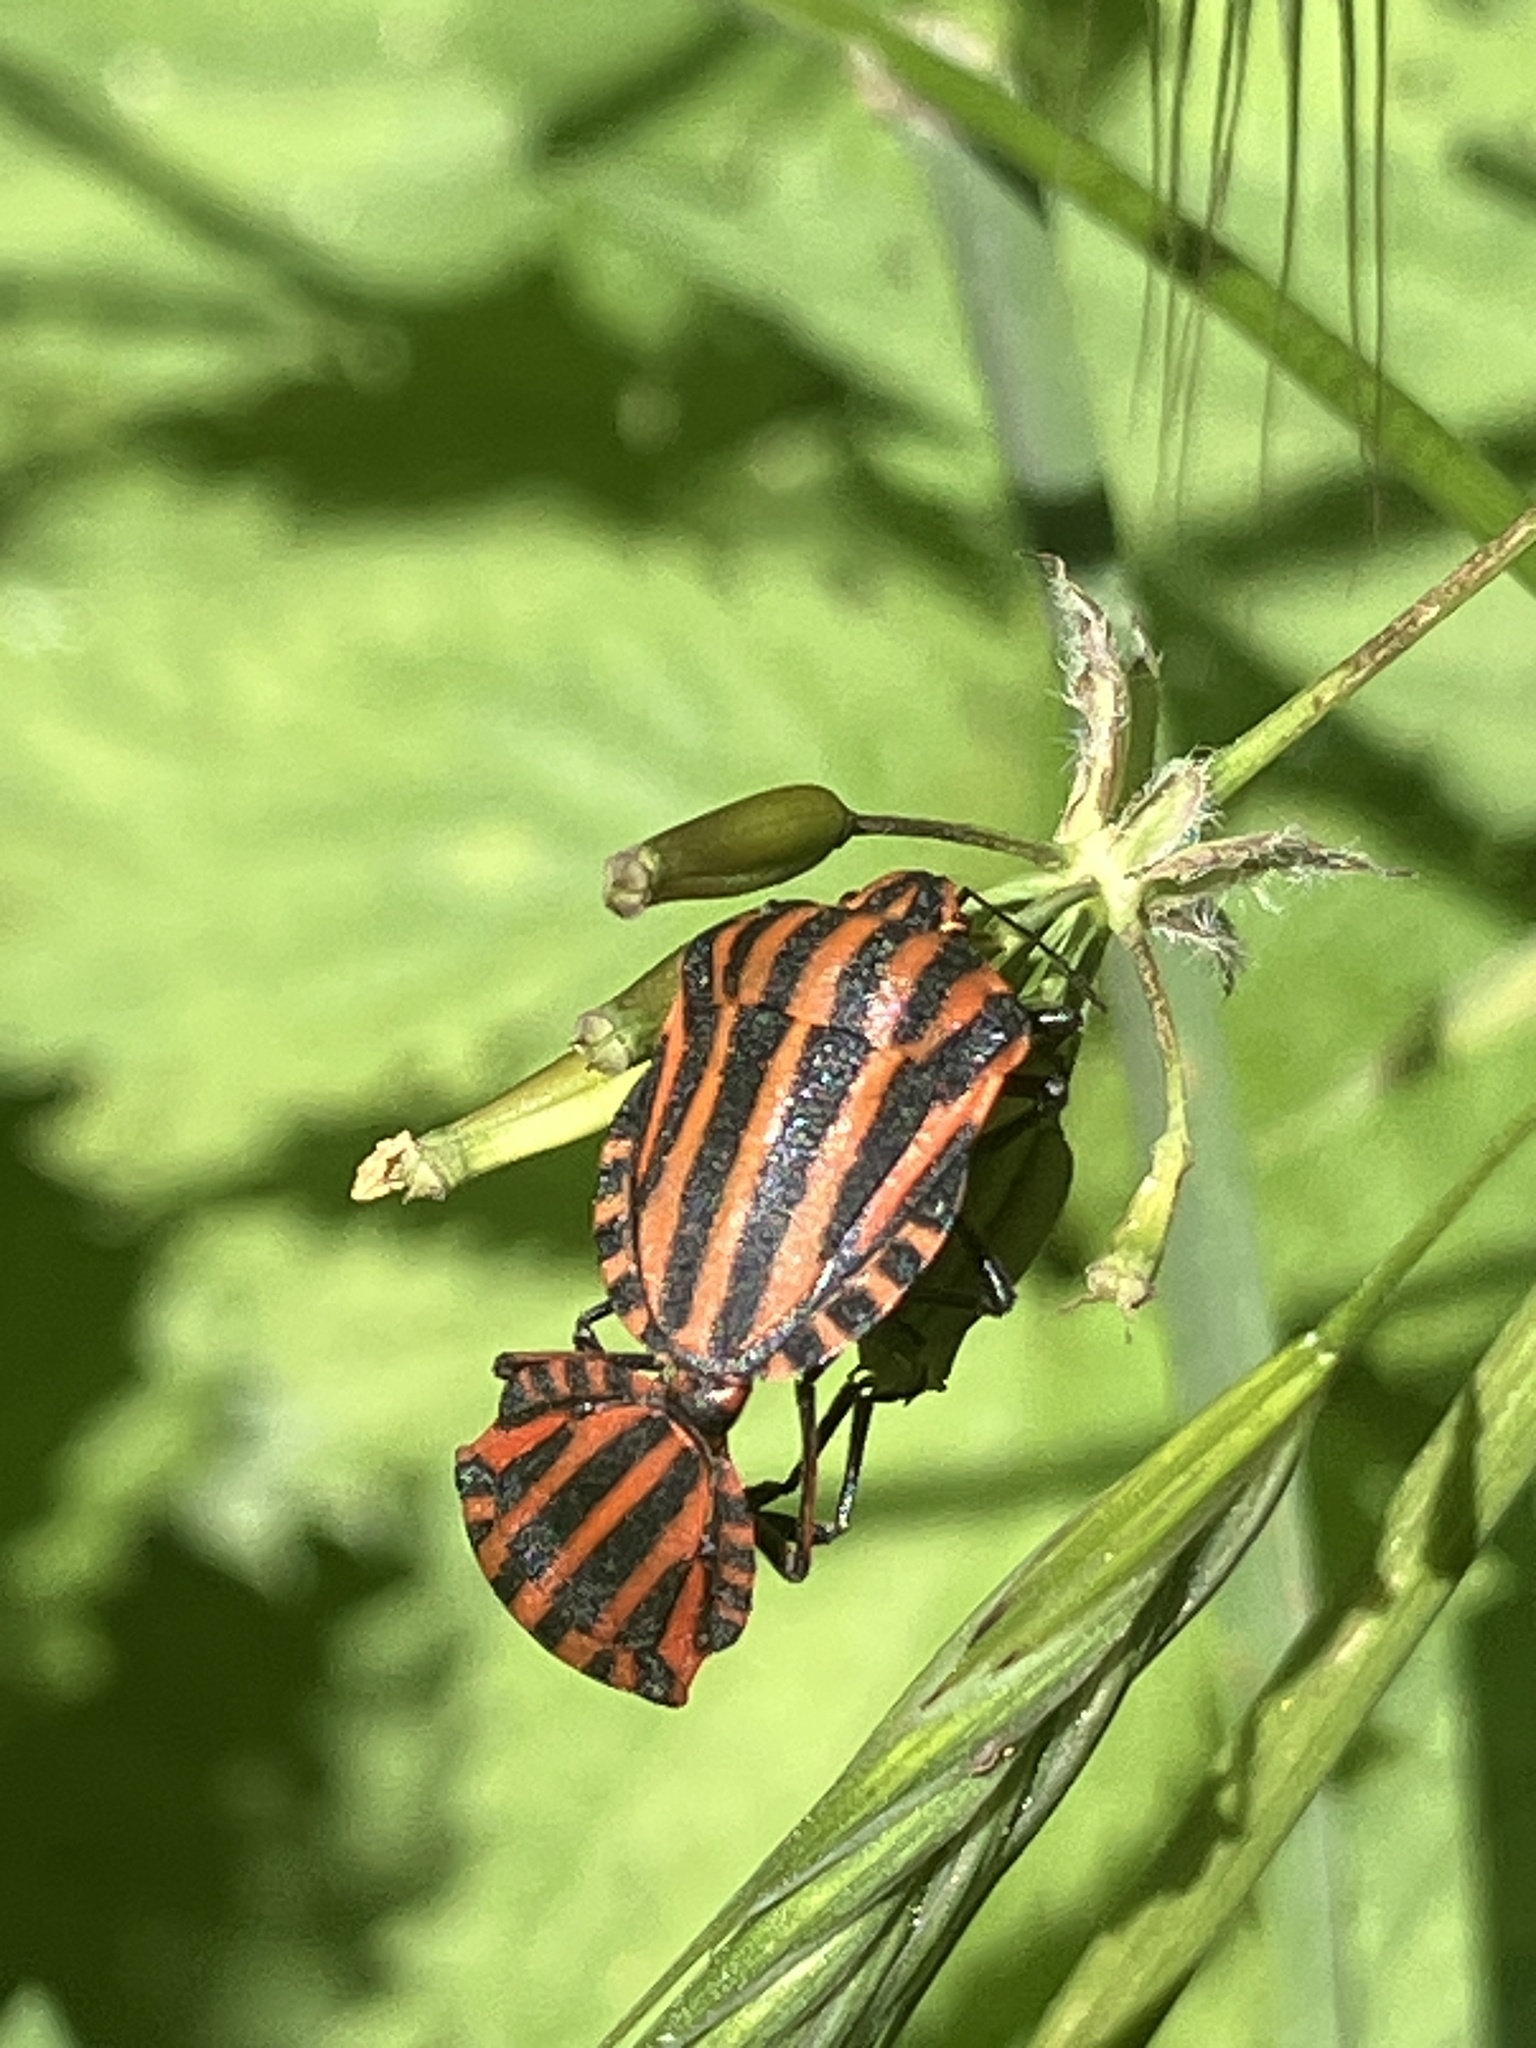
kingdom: Animalia
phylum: Arthropoda
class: Insecta
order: Hemiptera
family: Pentatomidae
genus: Graphosoma
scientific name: Graphosoma italicum
